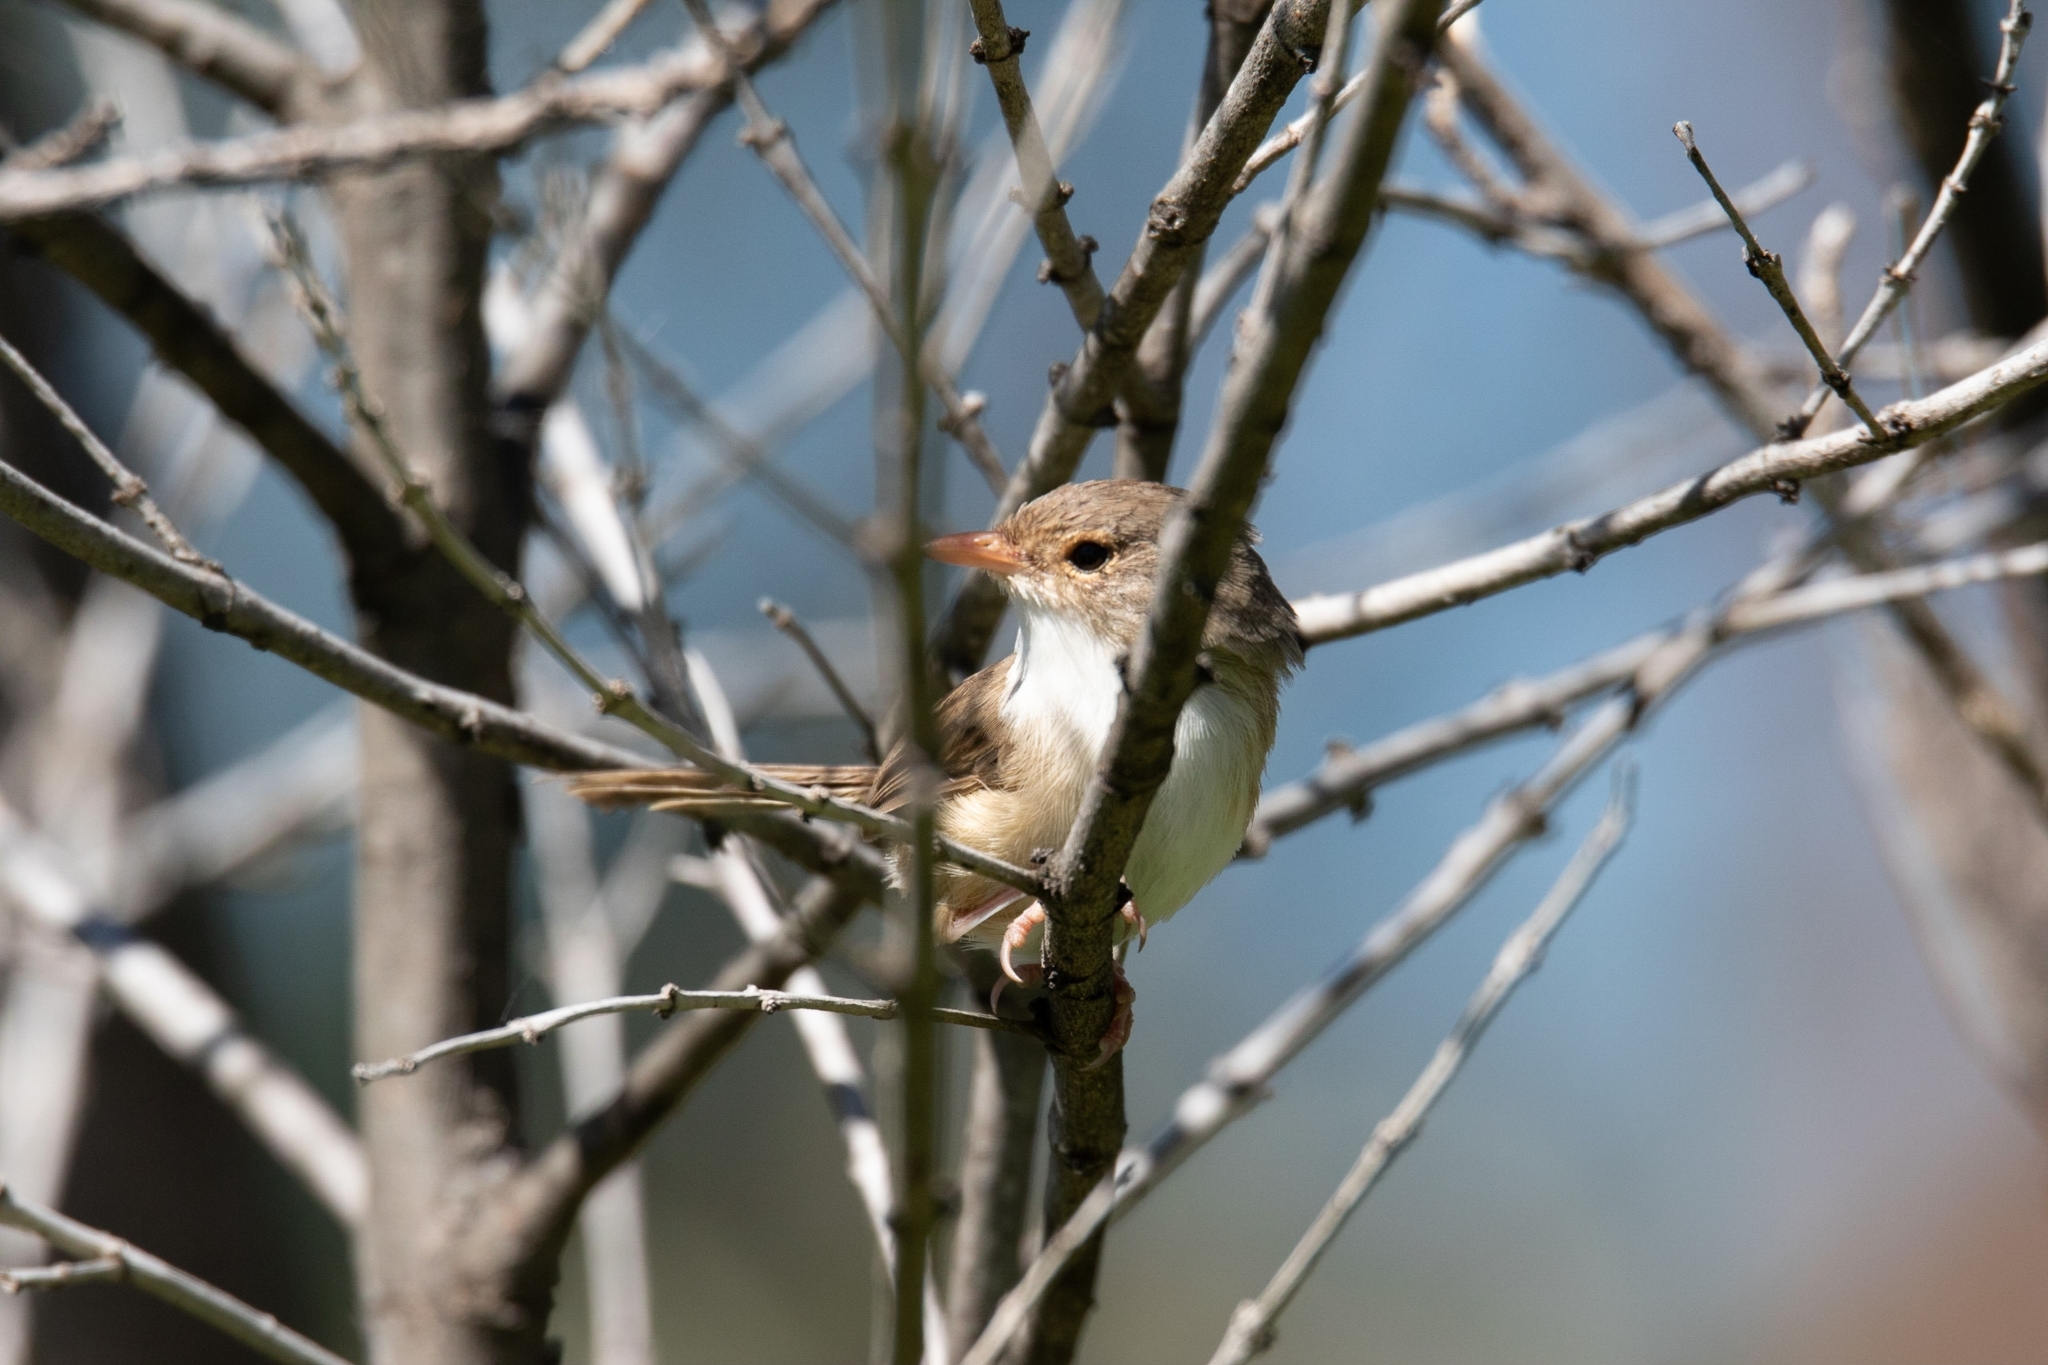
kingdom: Animalia
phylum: Chordata
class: Aves
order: Passeriformes
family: Maluridae
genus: Malurus
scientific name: Malurus cyaneus
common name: Superb fairywren
